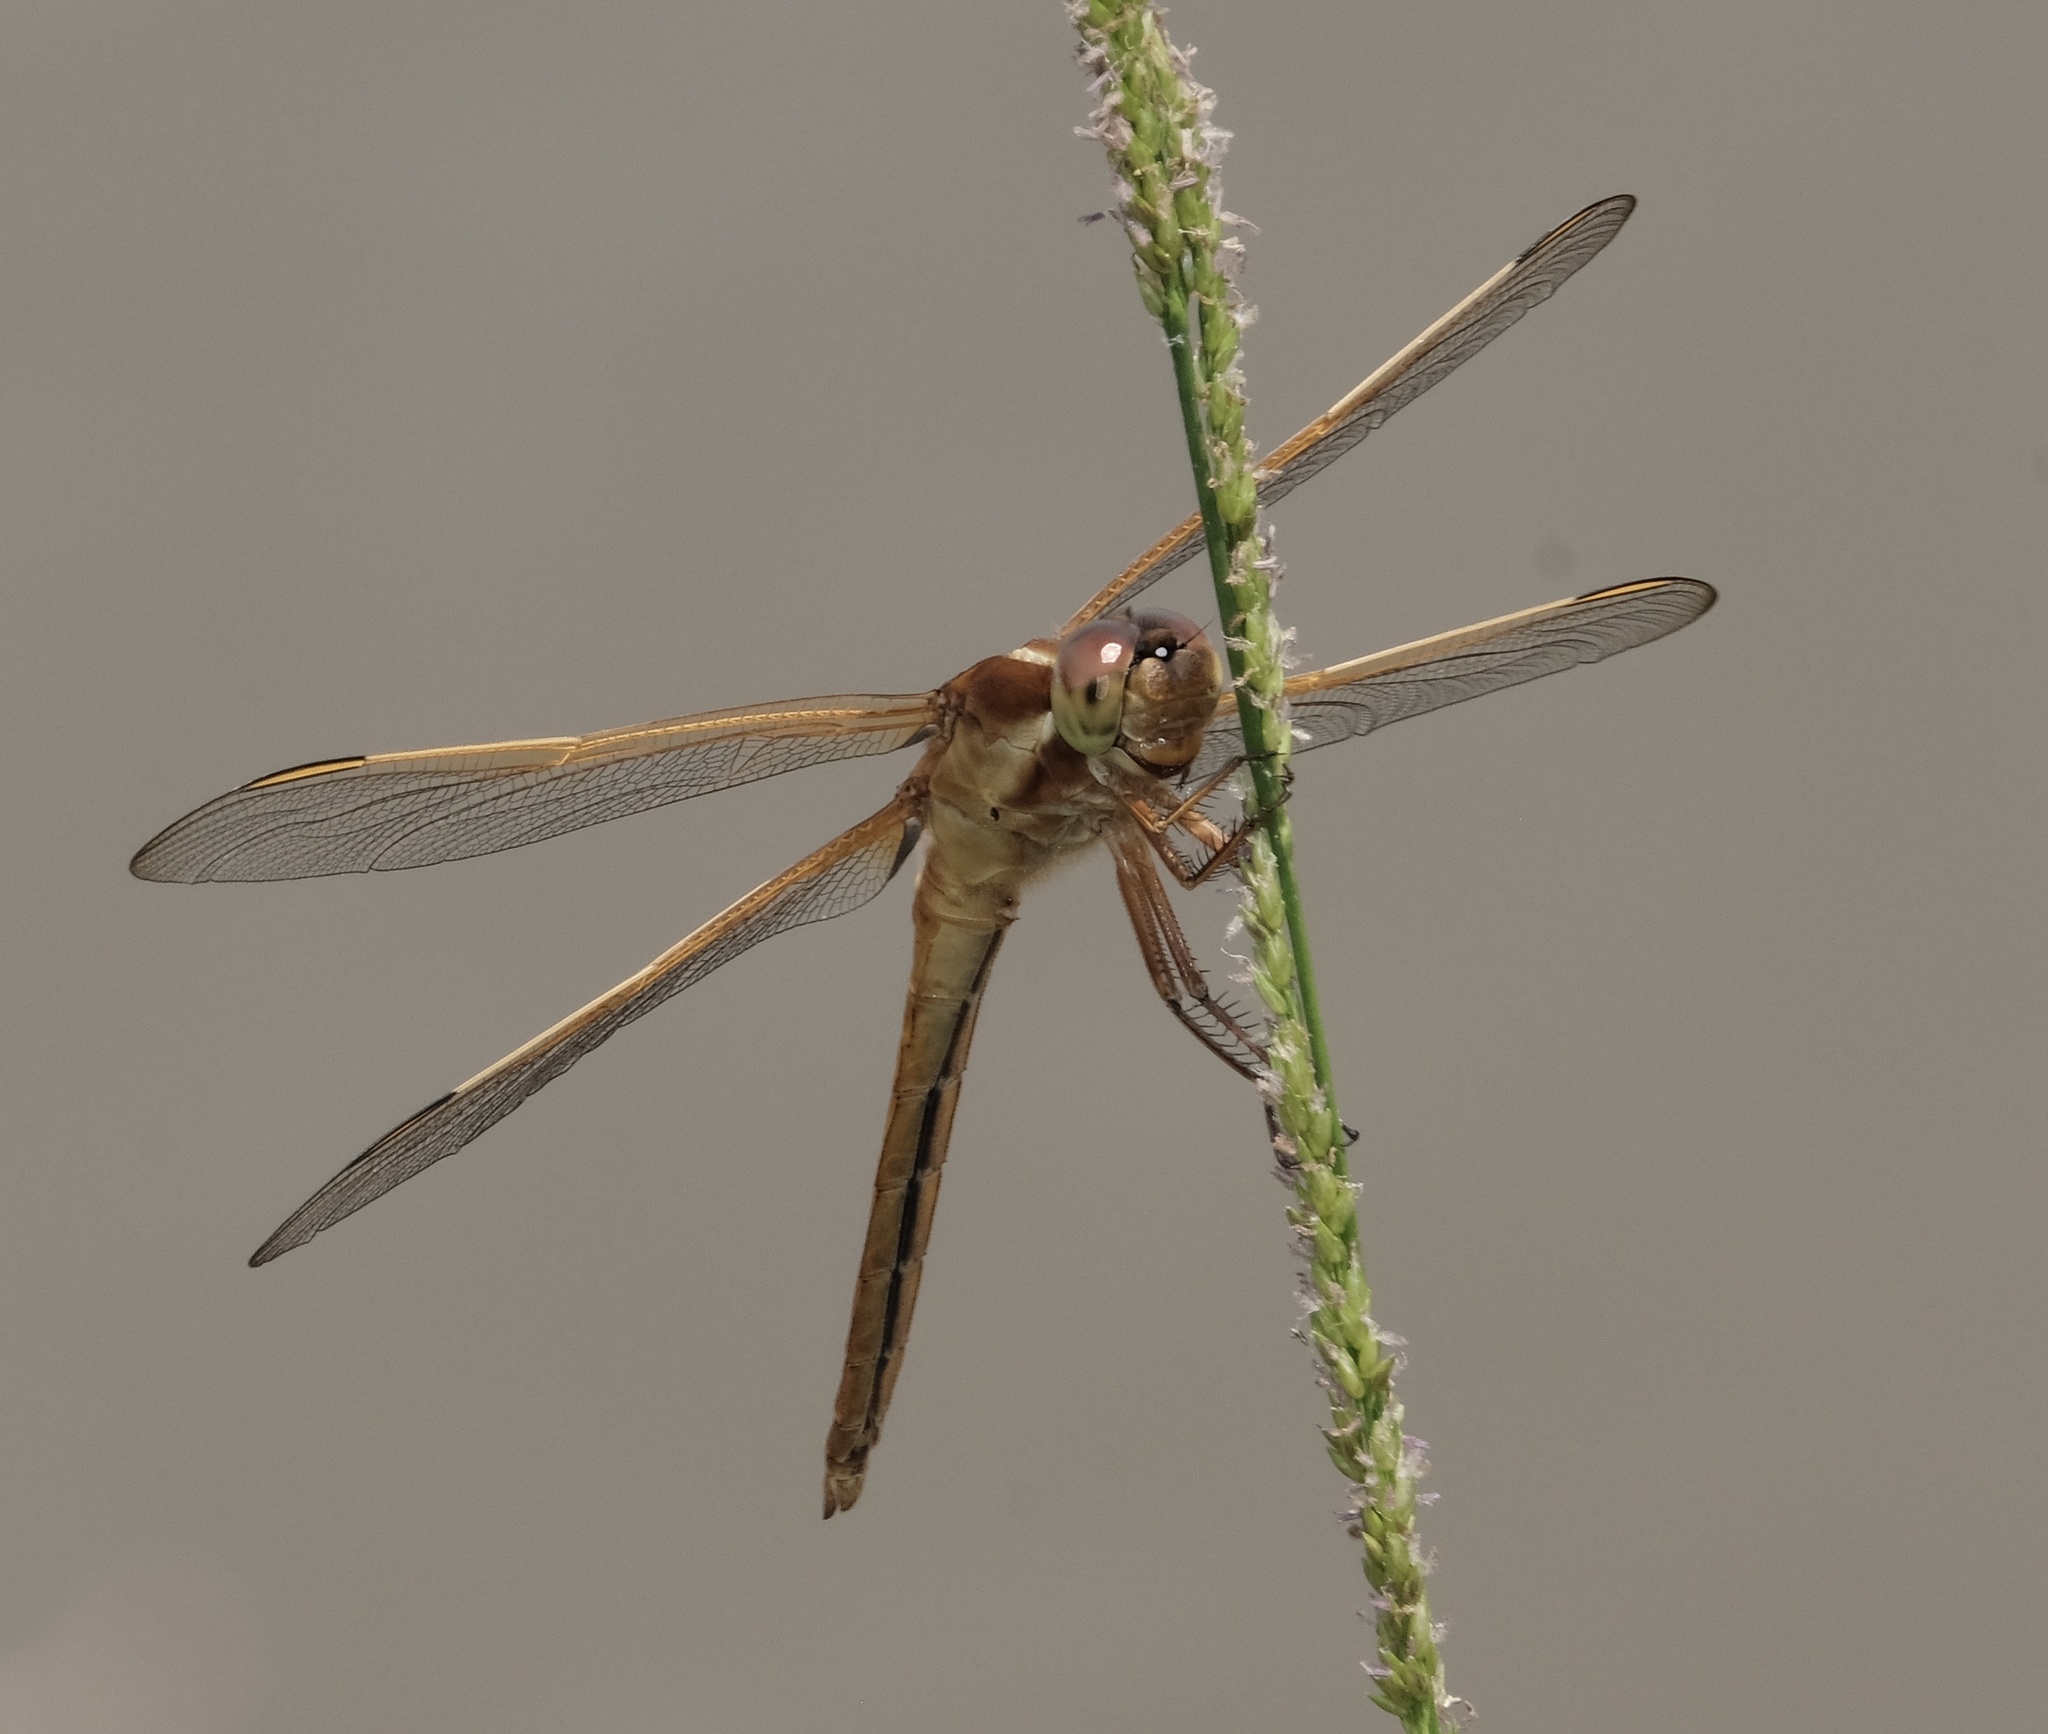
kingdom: Animalia
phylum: Arthropoda
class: Insecta
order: Odonata
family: Libellulidae
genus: Libellula
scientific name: Libellula needhami
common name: Needham's skimmer
